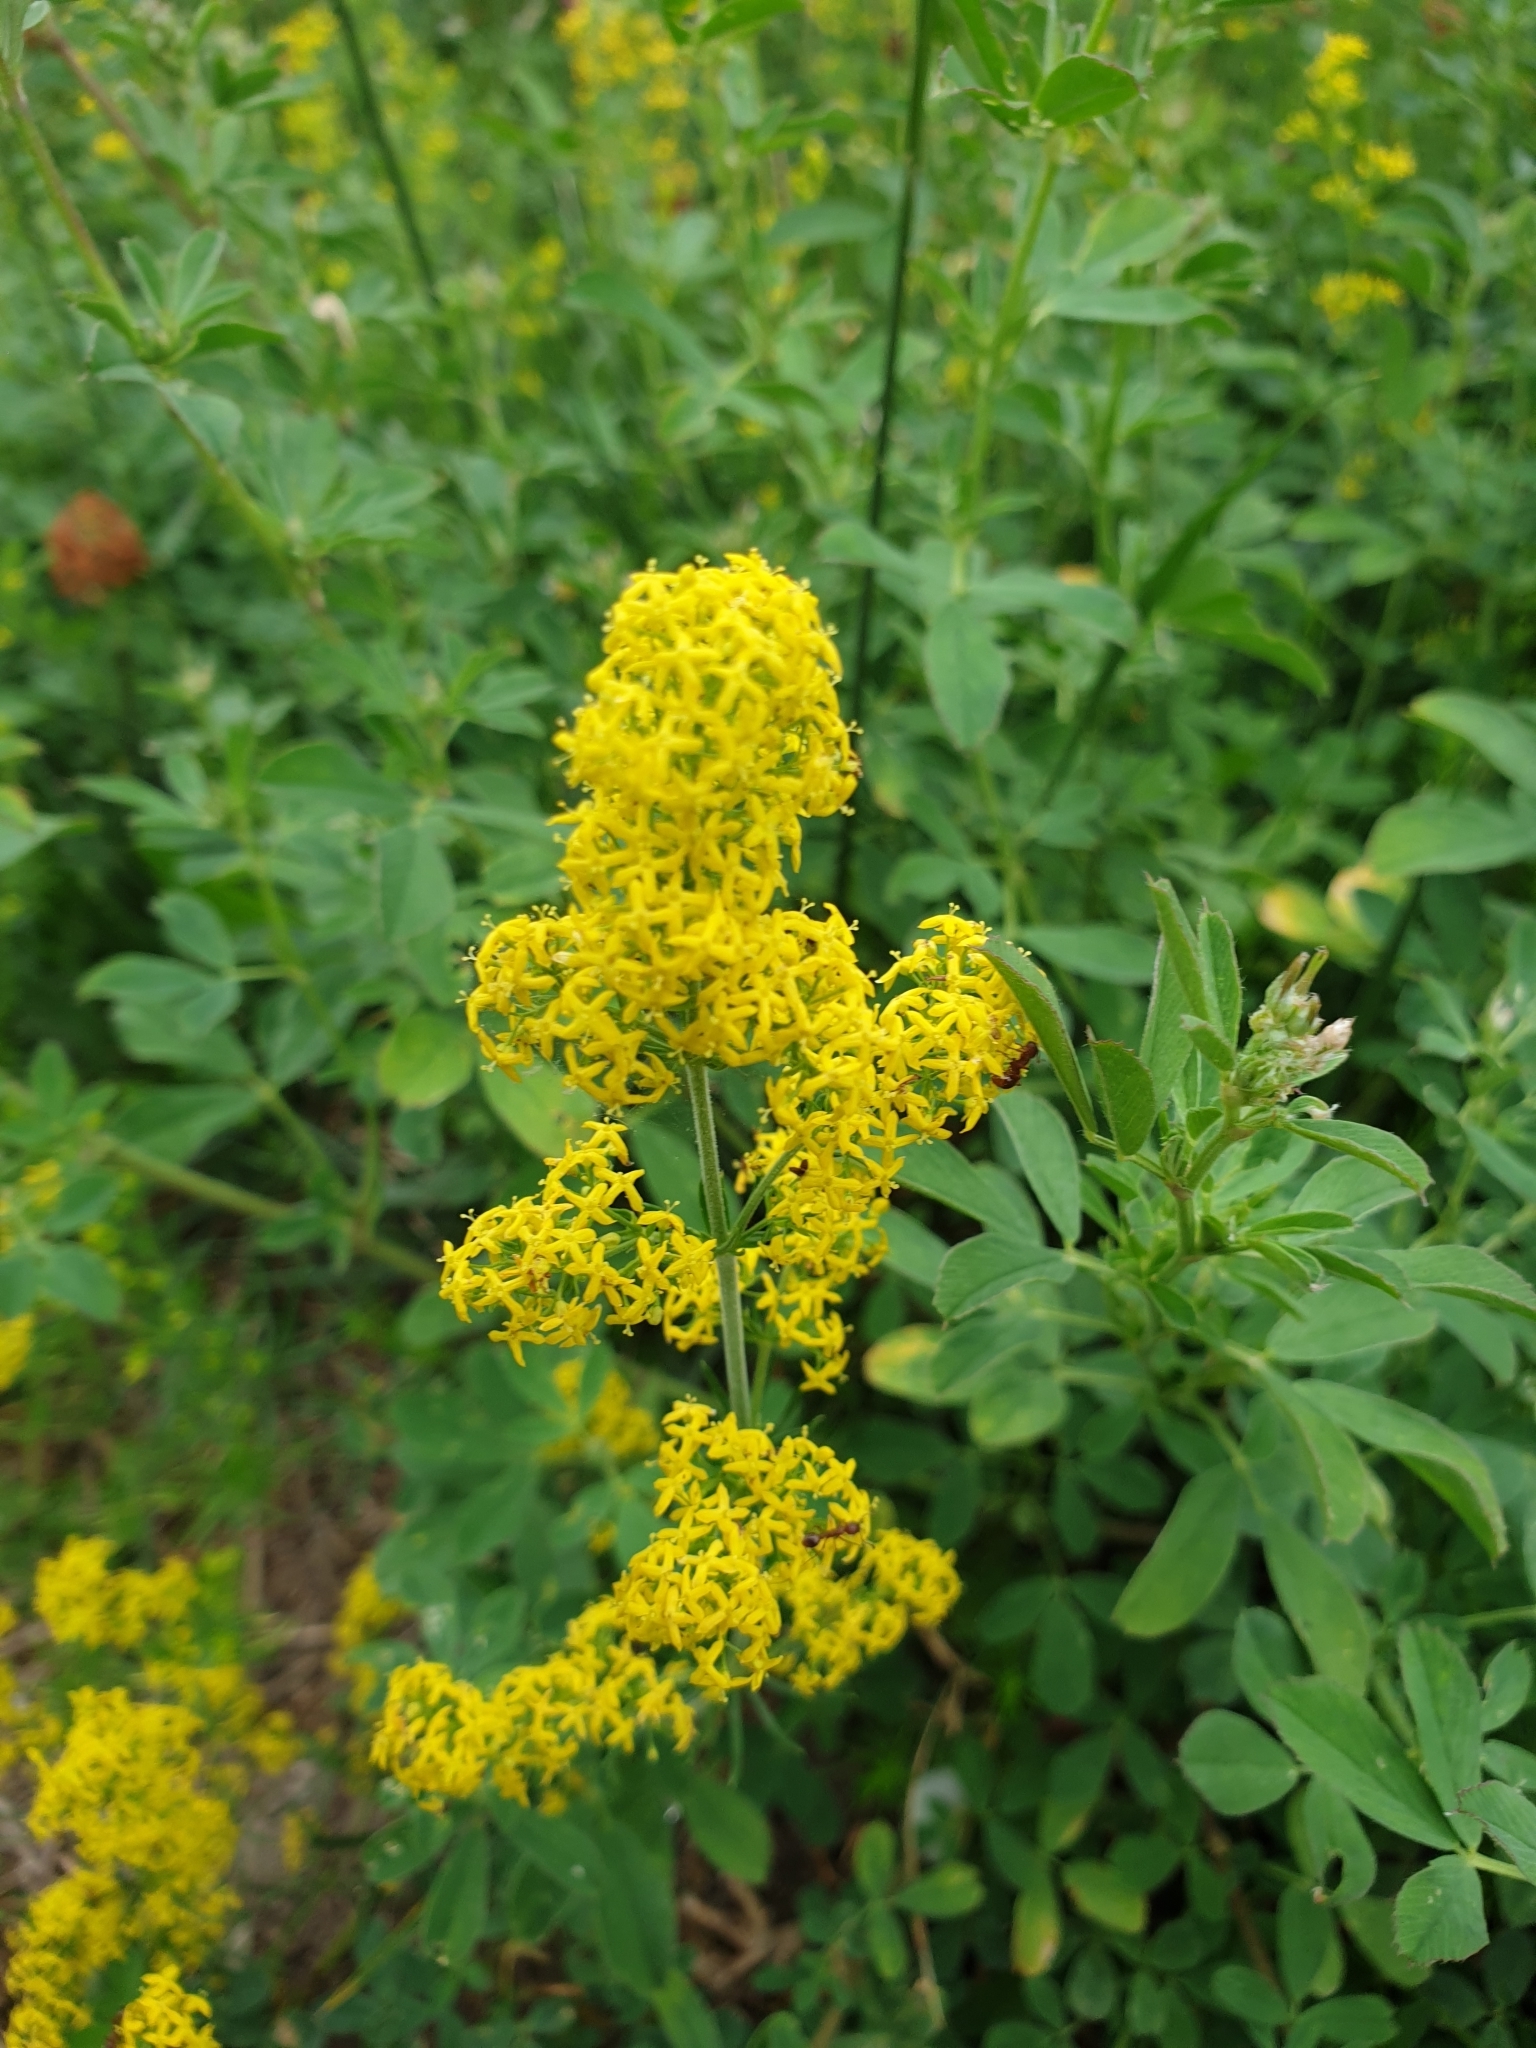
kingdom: Plantae
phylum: Tracheophyta
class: Magnoliopsida
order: Gentianales
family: Rubiaceae
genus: Galium
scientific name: Galium verum
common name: Lady's bedstraw
